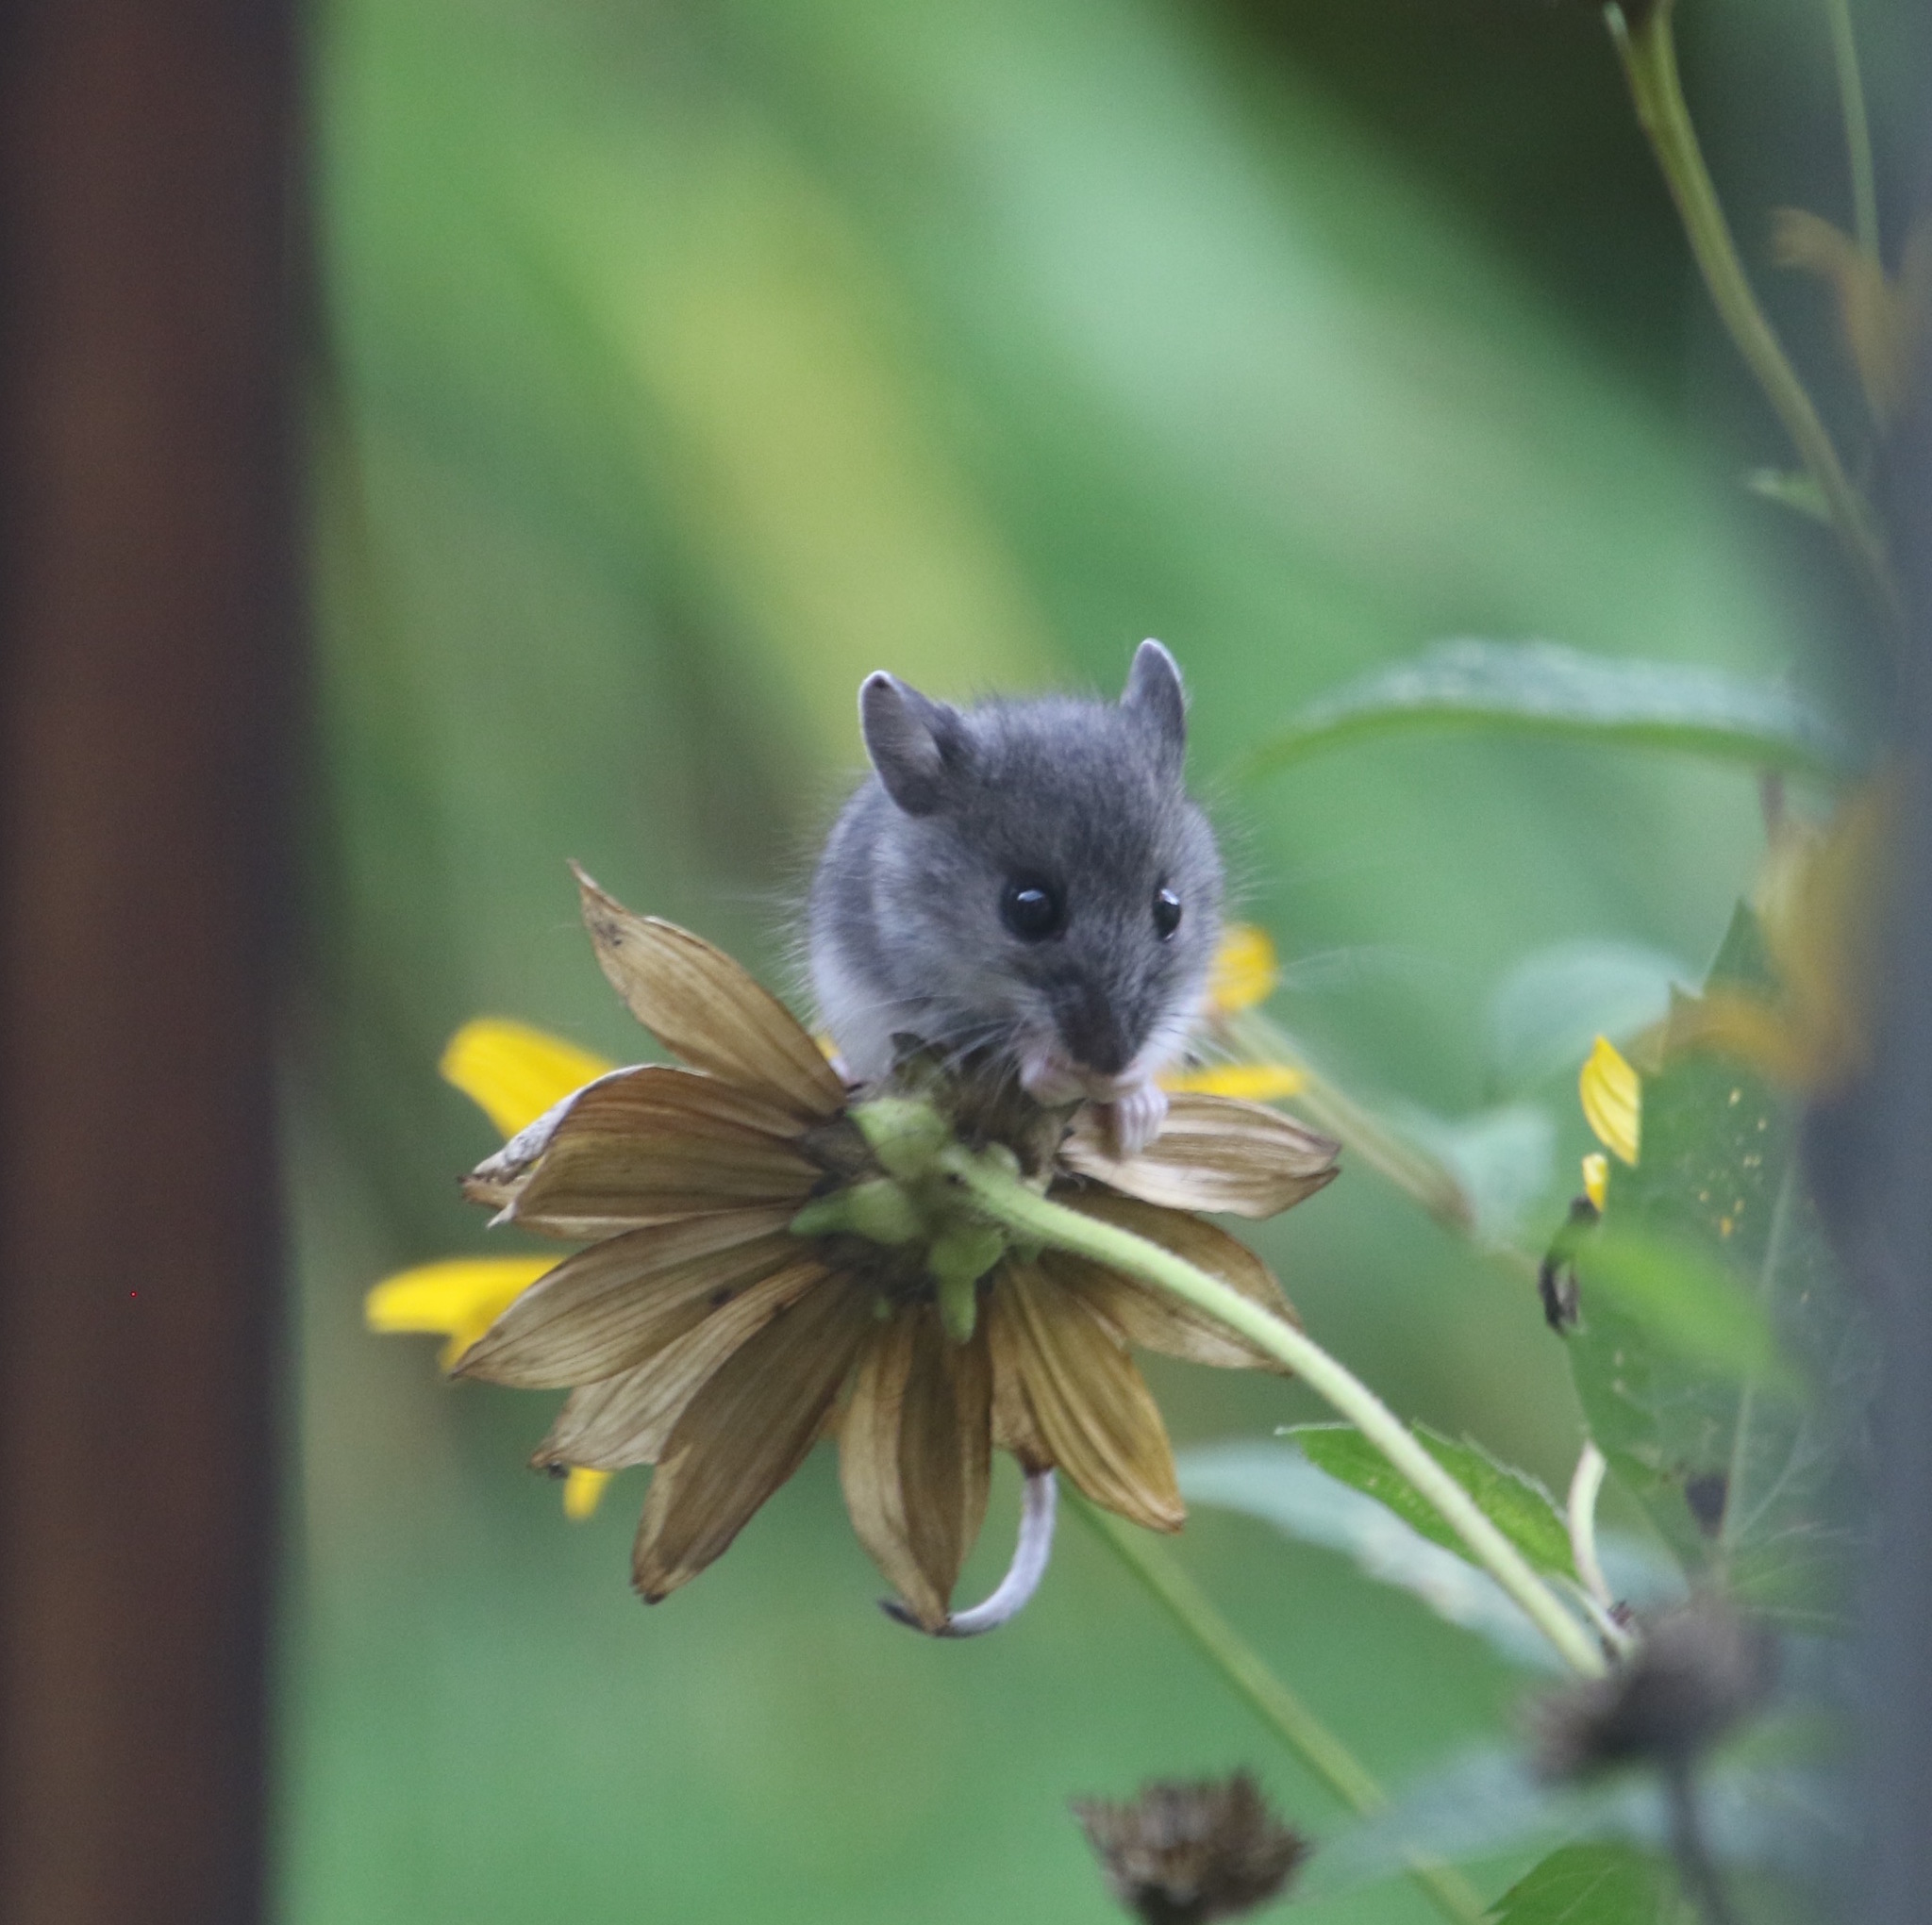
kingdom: Animalia
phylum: Chordata
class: Mammalia
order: Rodentia
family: Cricetidae
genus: Peromyscus
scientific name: Peromyscus
